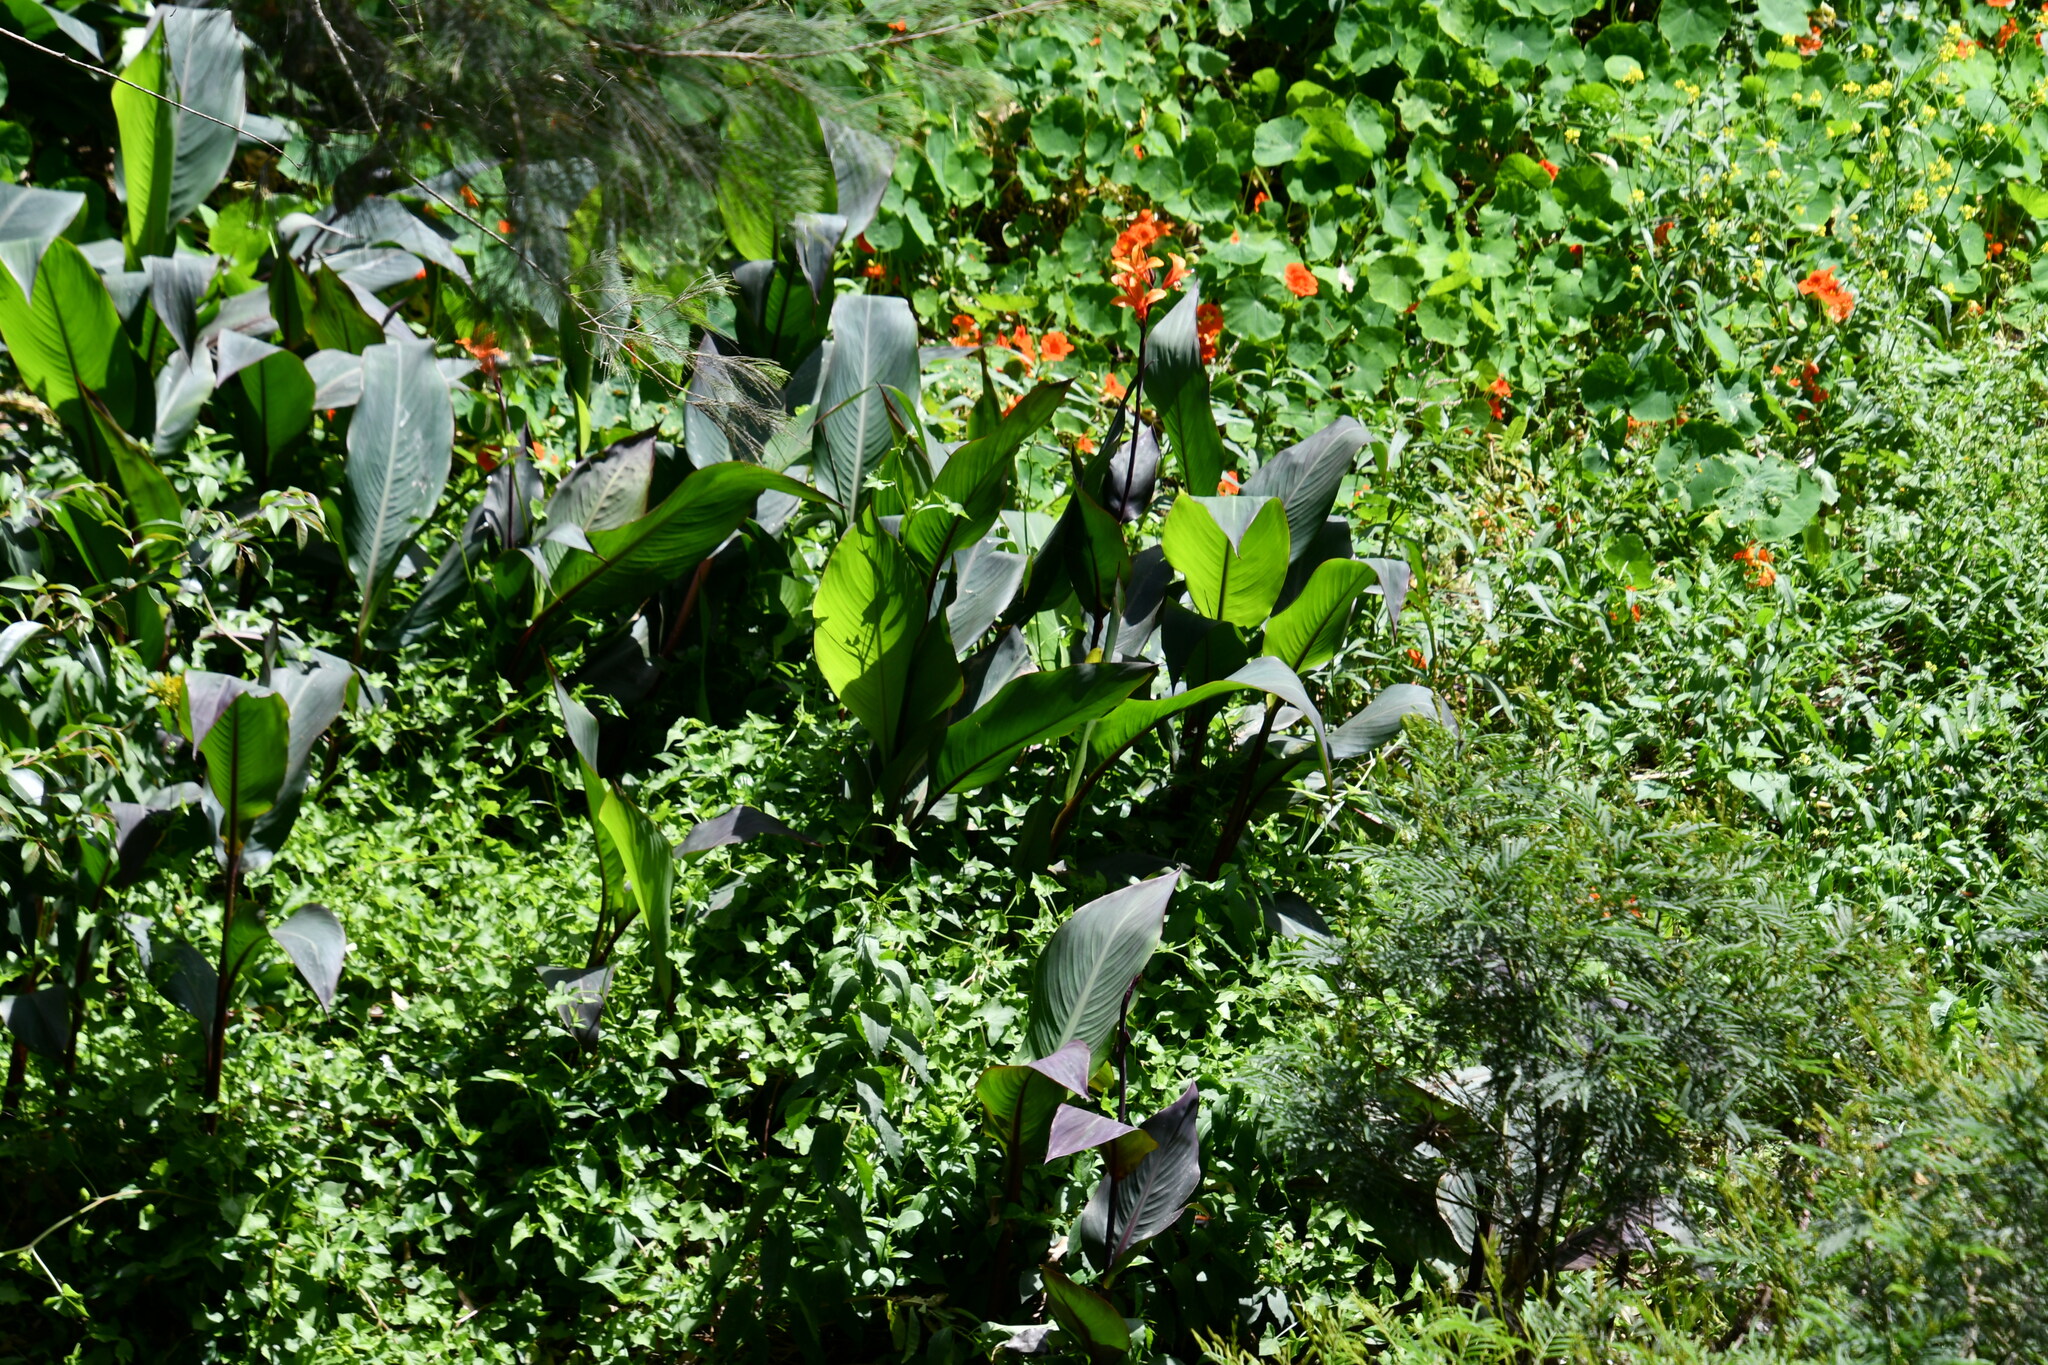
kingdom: Plantae
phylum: Tracheophyta
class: Liliopsida
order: Zingiberales
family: Cannaceae
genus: Canna
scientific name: Canna indica
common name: Indian shot
